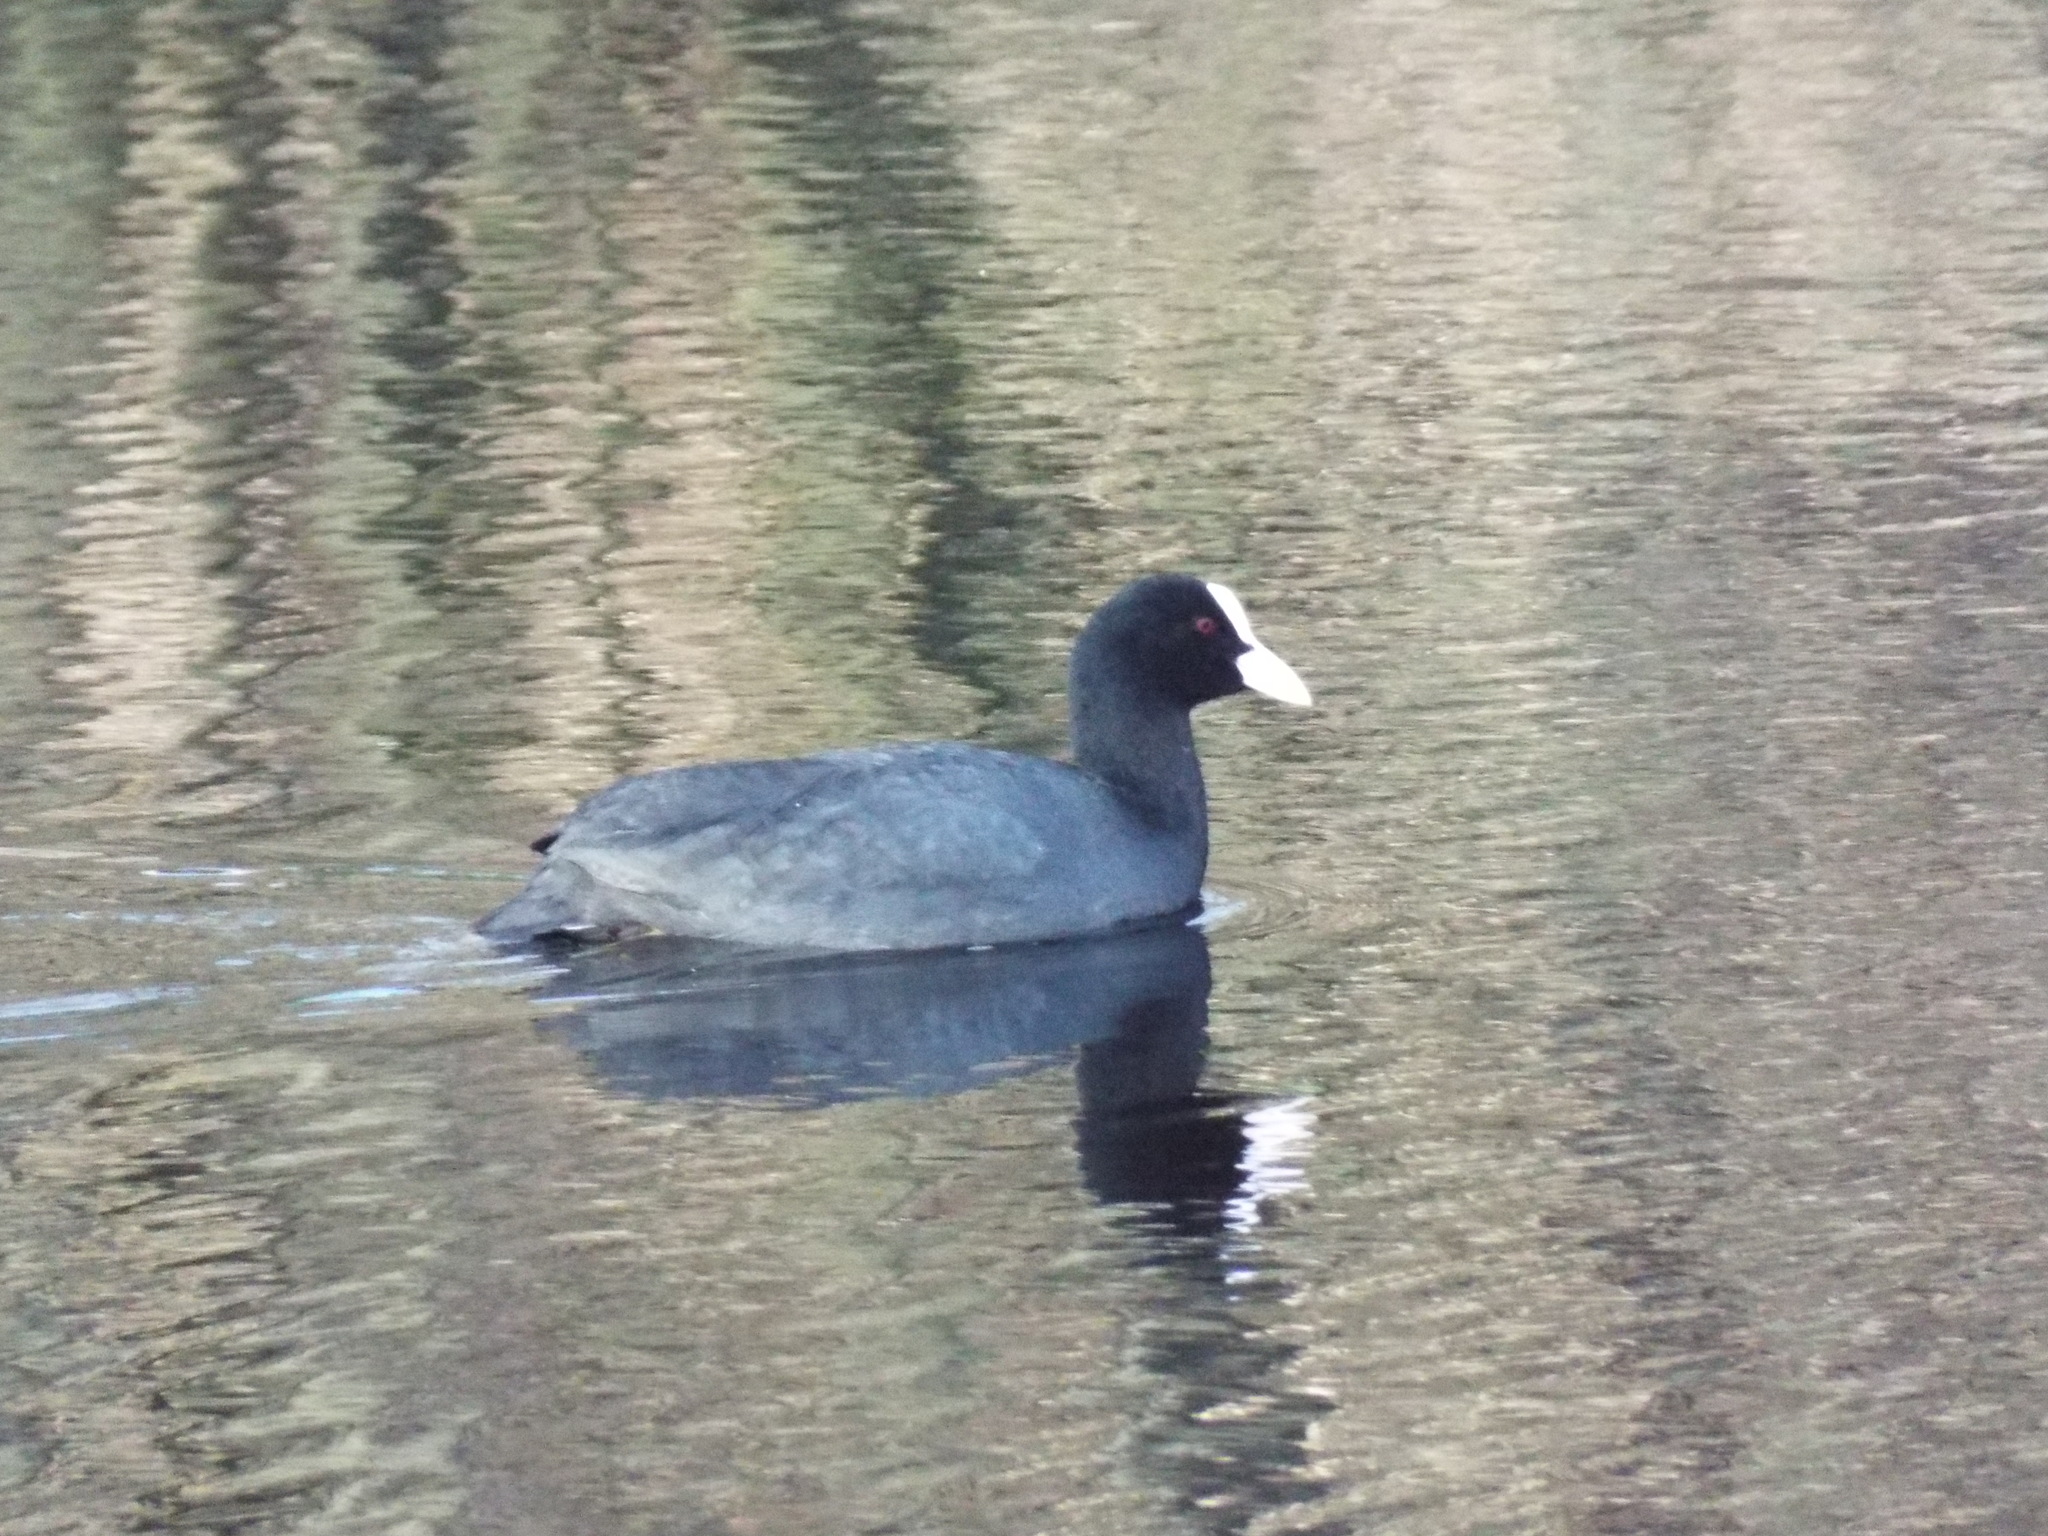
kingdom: Animalia
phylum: Chordata
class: Aves
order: Gruiformes
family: Rallidae
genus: Fulica
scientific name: Fulica atra
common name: Eurasian coot
